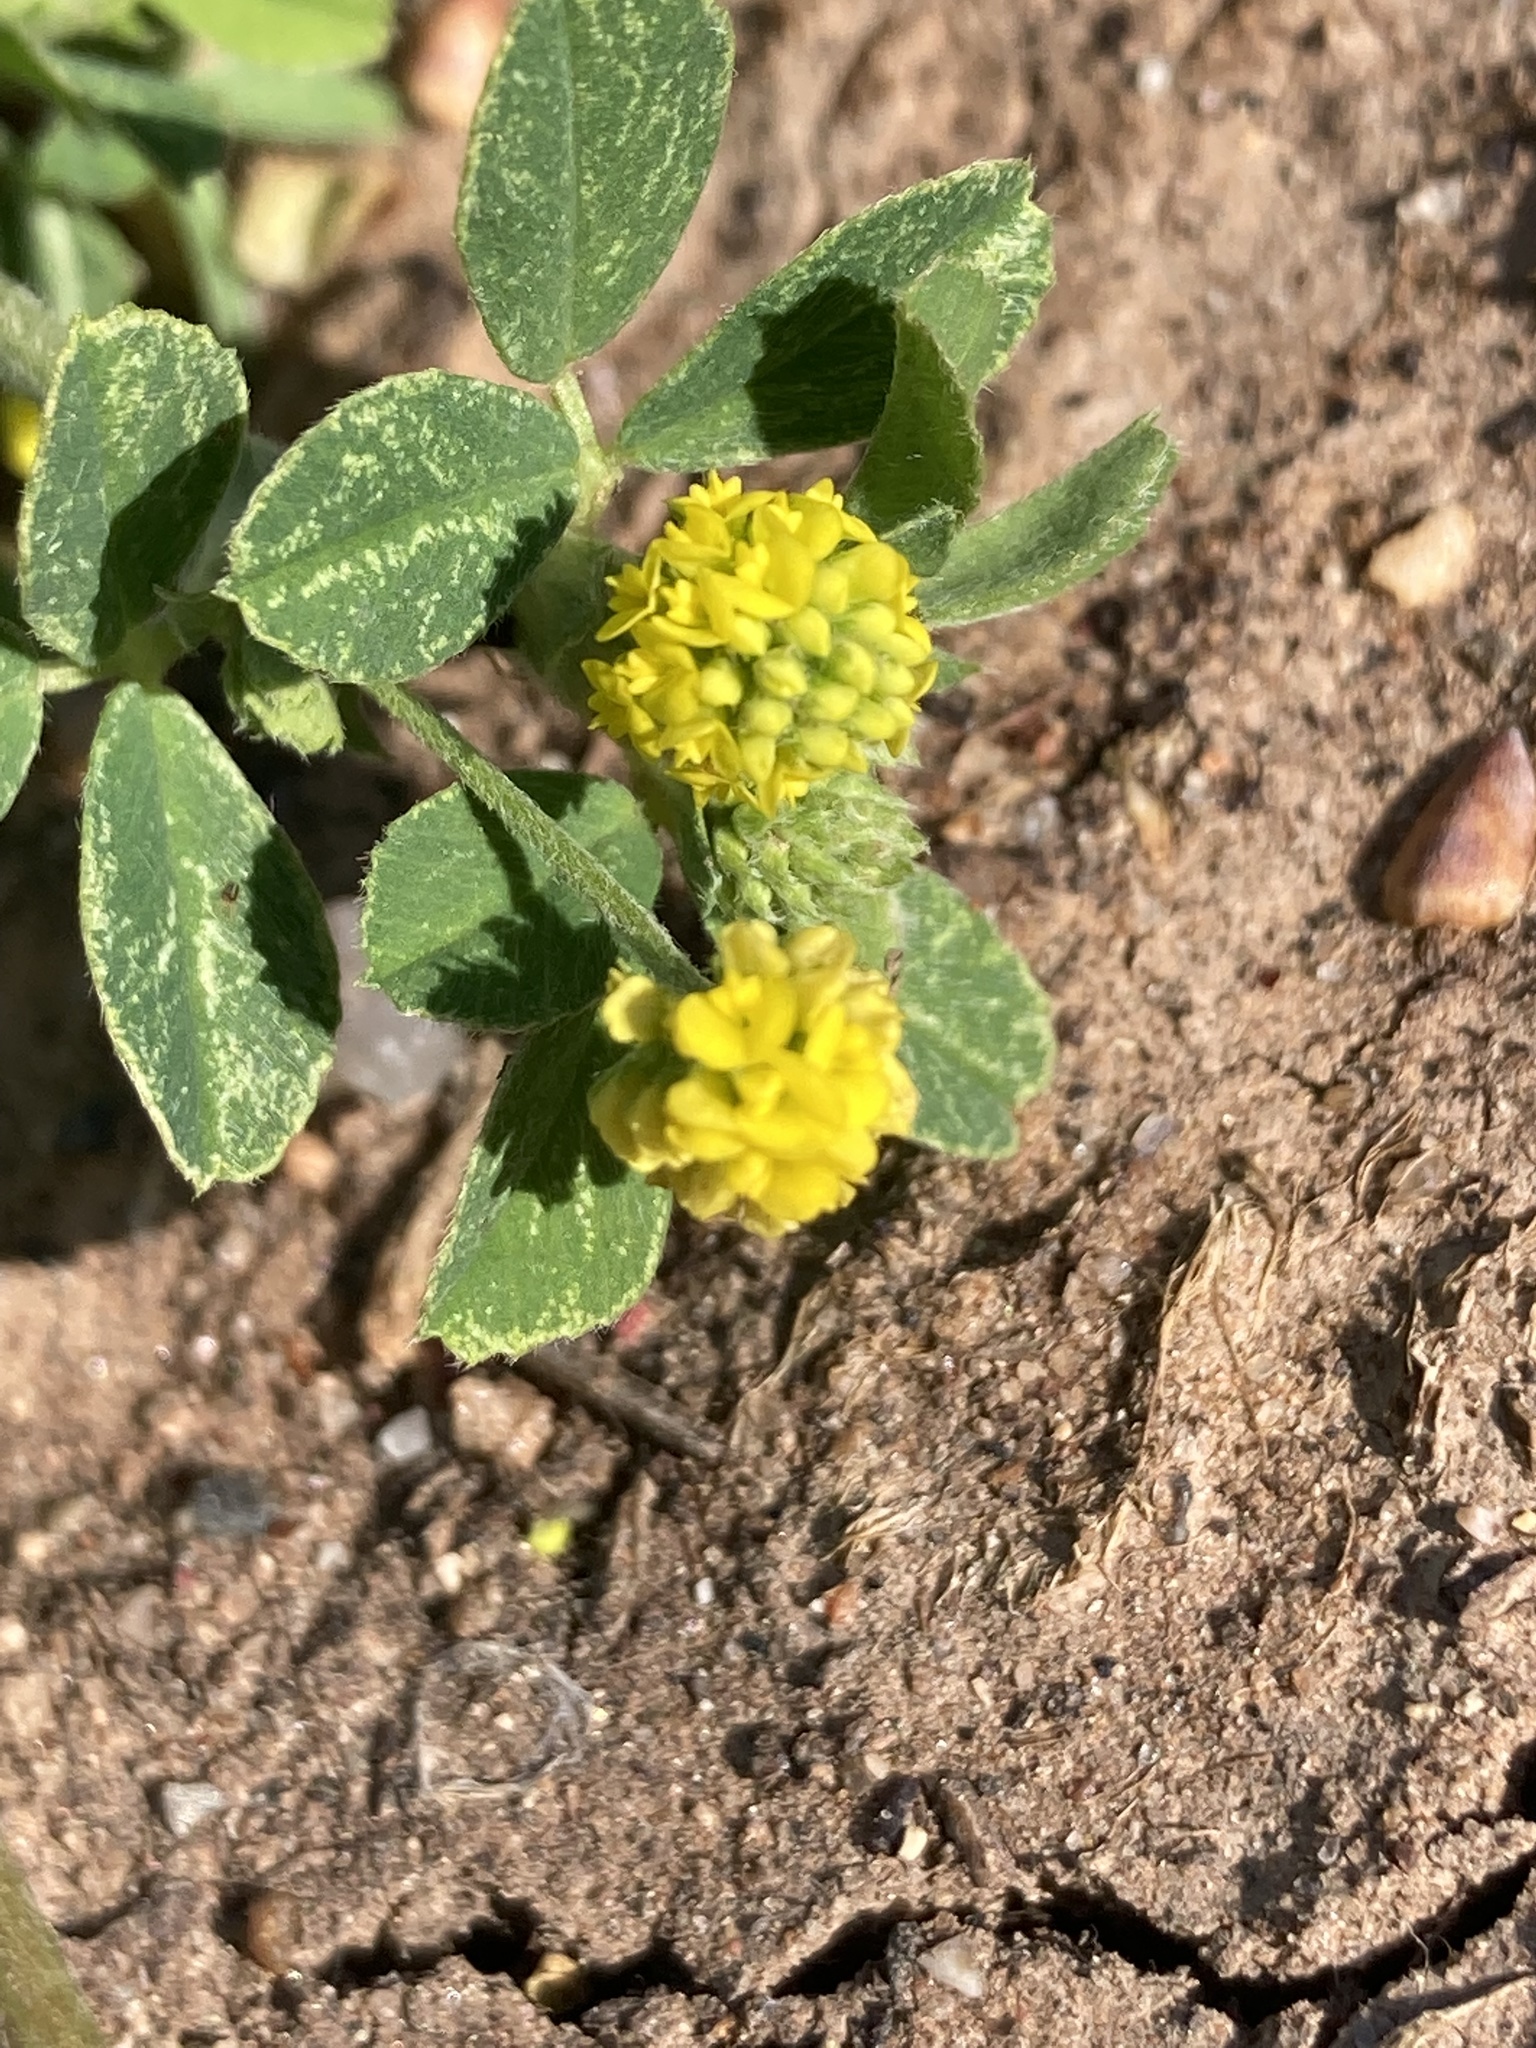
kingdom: Plantae
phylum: Tracheophyta
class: Magnoliopsida
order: Fabales
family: Fabaceae
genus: Medicago
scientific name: Medicago lupulina
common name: Black medick
